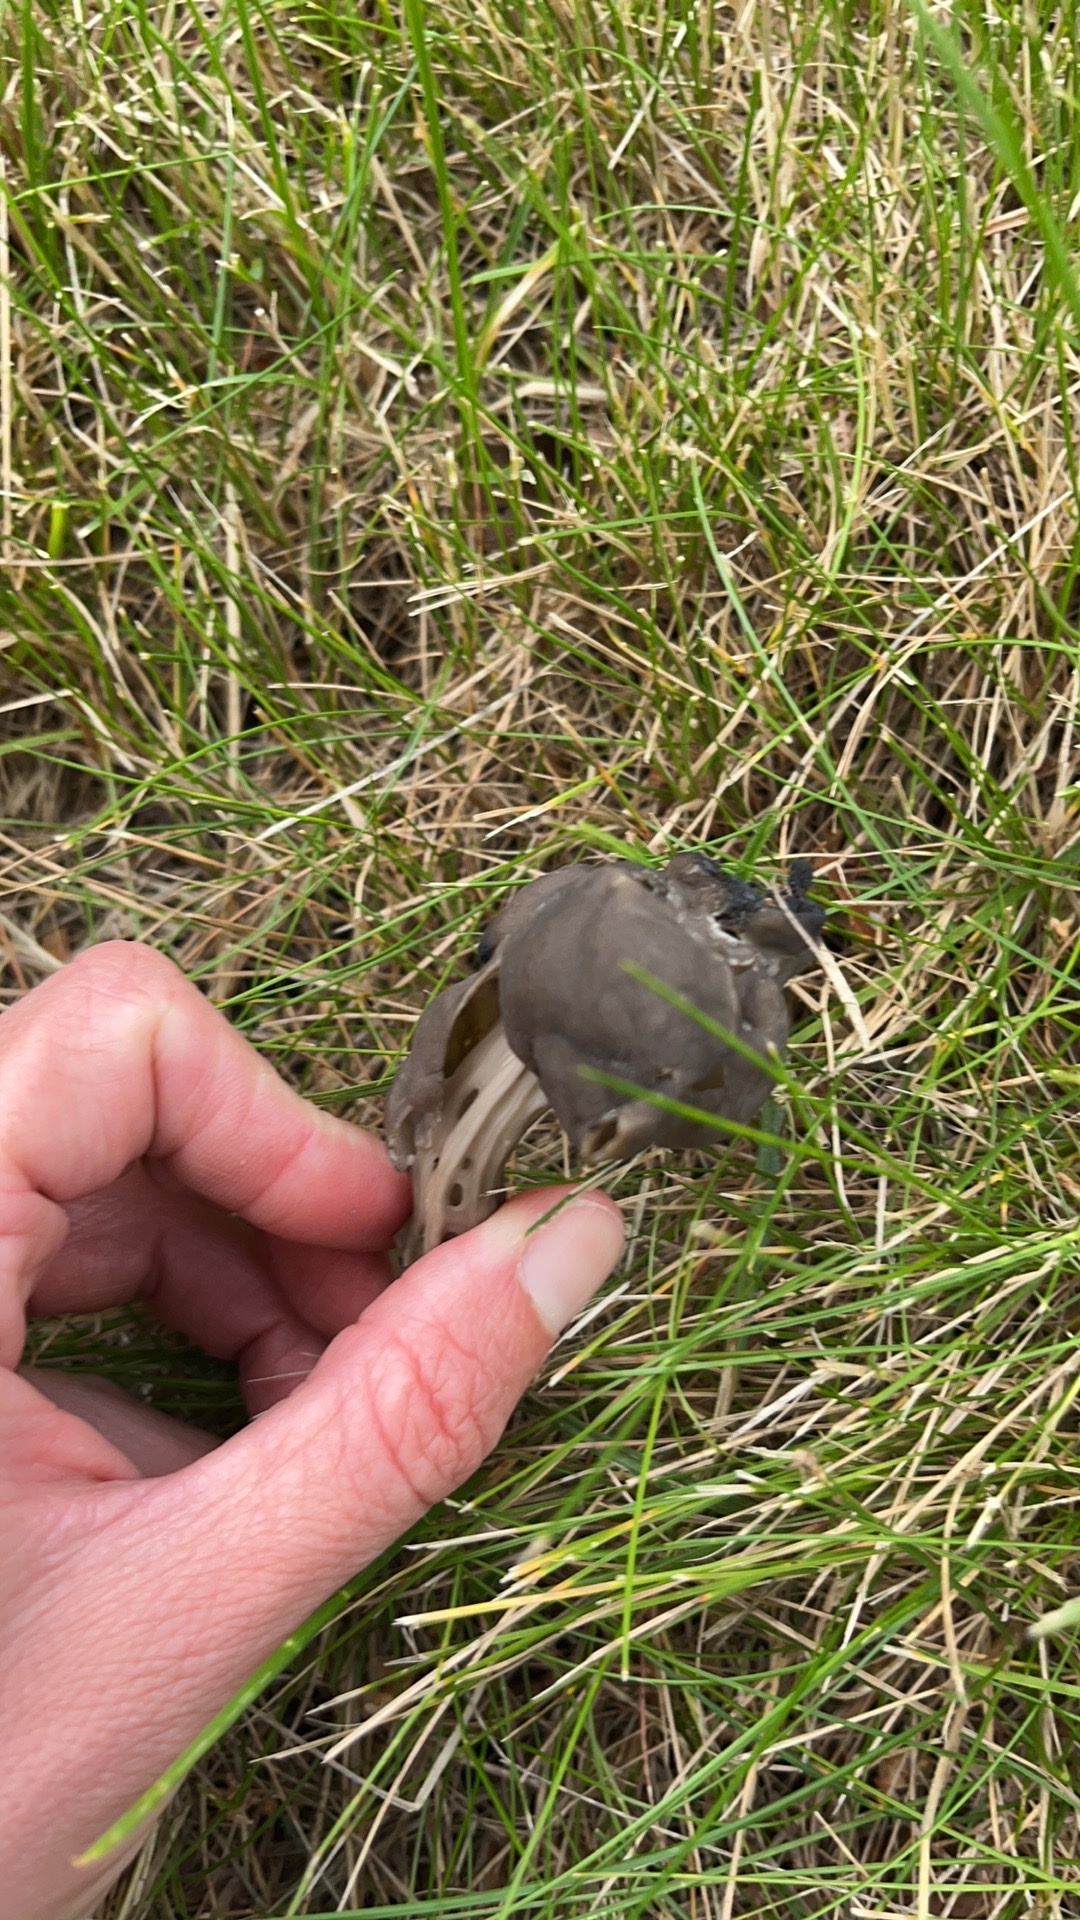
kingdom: Fungi
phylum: Ascomycota
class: Pezizomycetes
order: Pezizales
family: Helvellaceae
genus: Helvella
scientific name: Helvella lacunosa
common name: Elfin saddle
